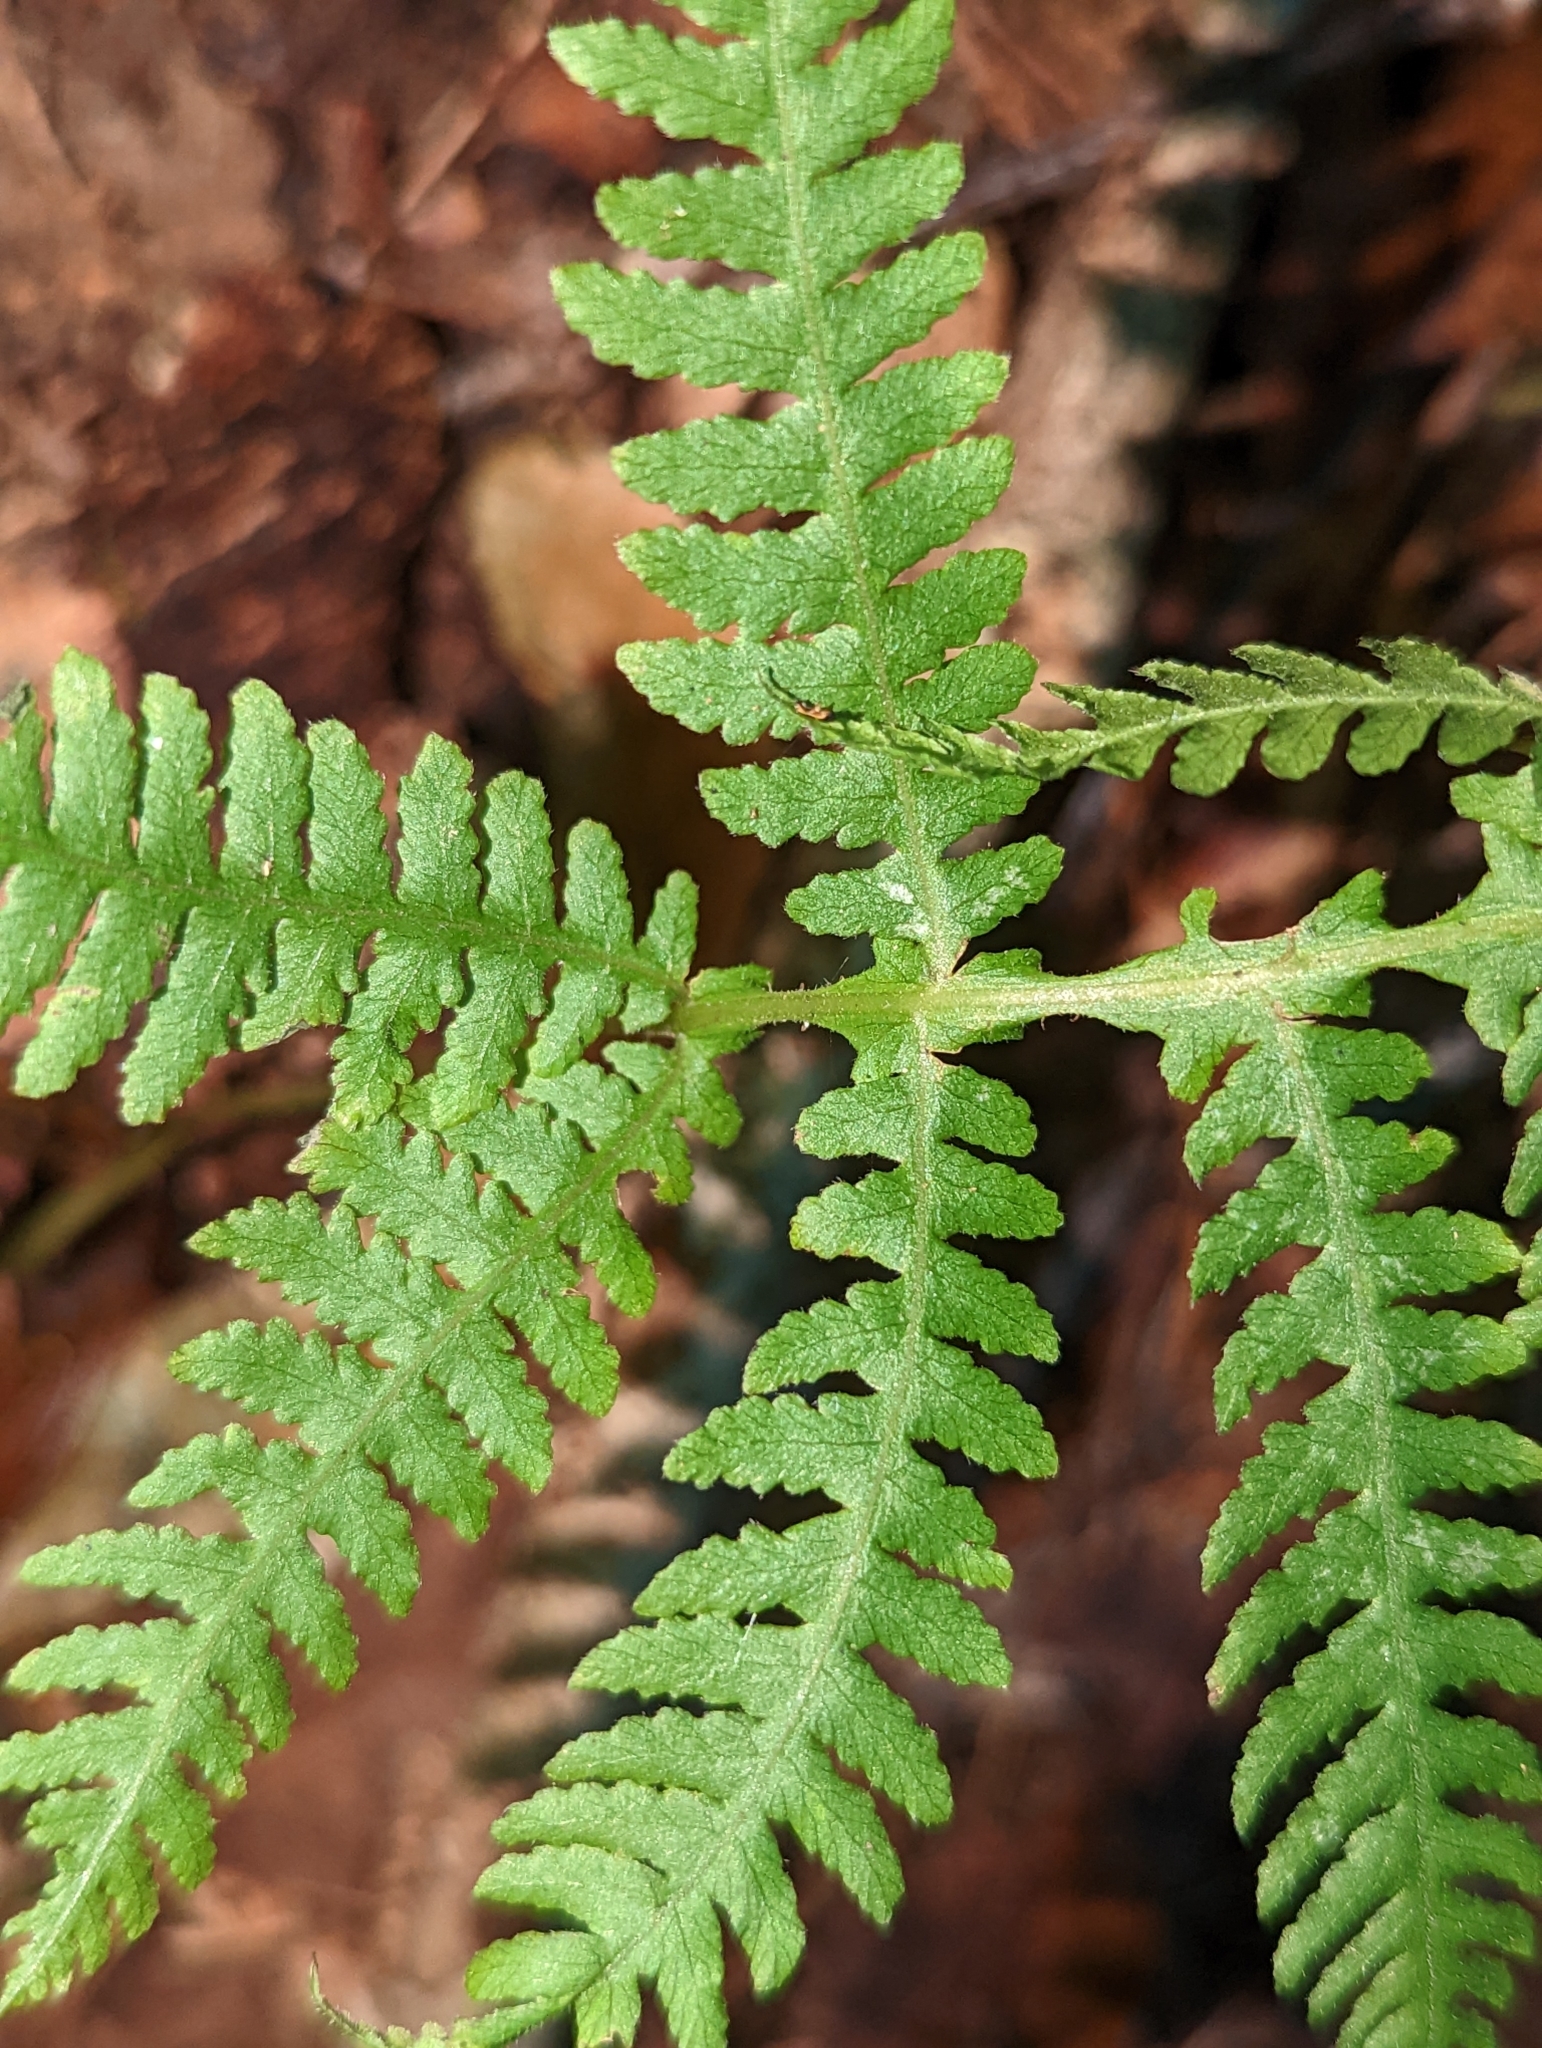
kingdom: Plantae
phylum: Tracheophyta
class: Polypodiopsida
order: Polypodiales
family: Thelypteridaceae
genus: Phegopteris
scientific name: Phegopteris hexagonoptera
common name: Broad beech fern
